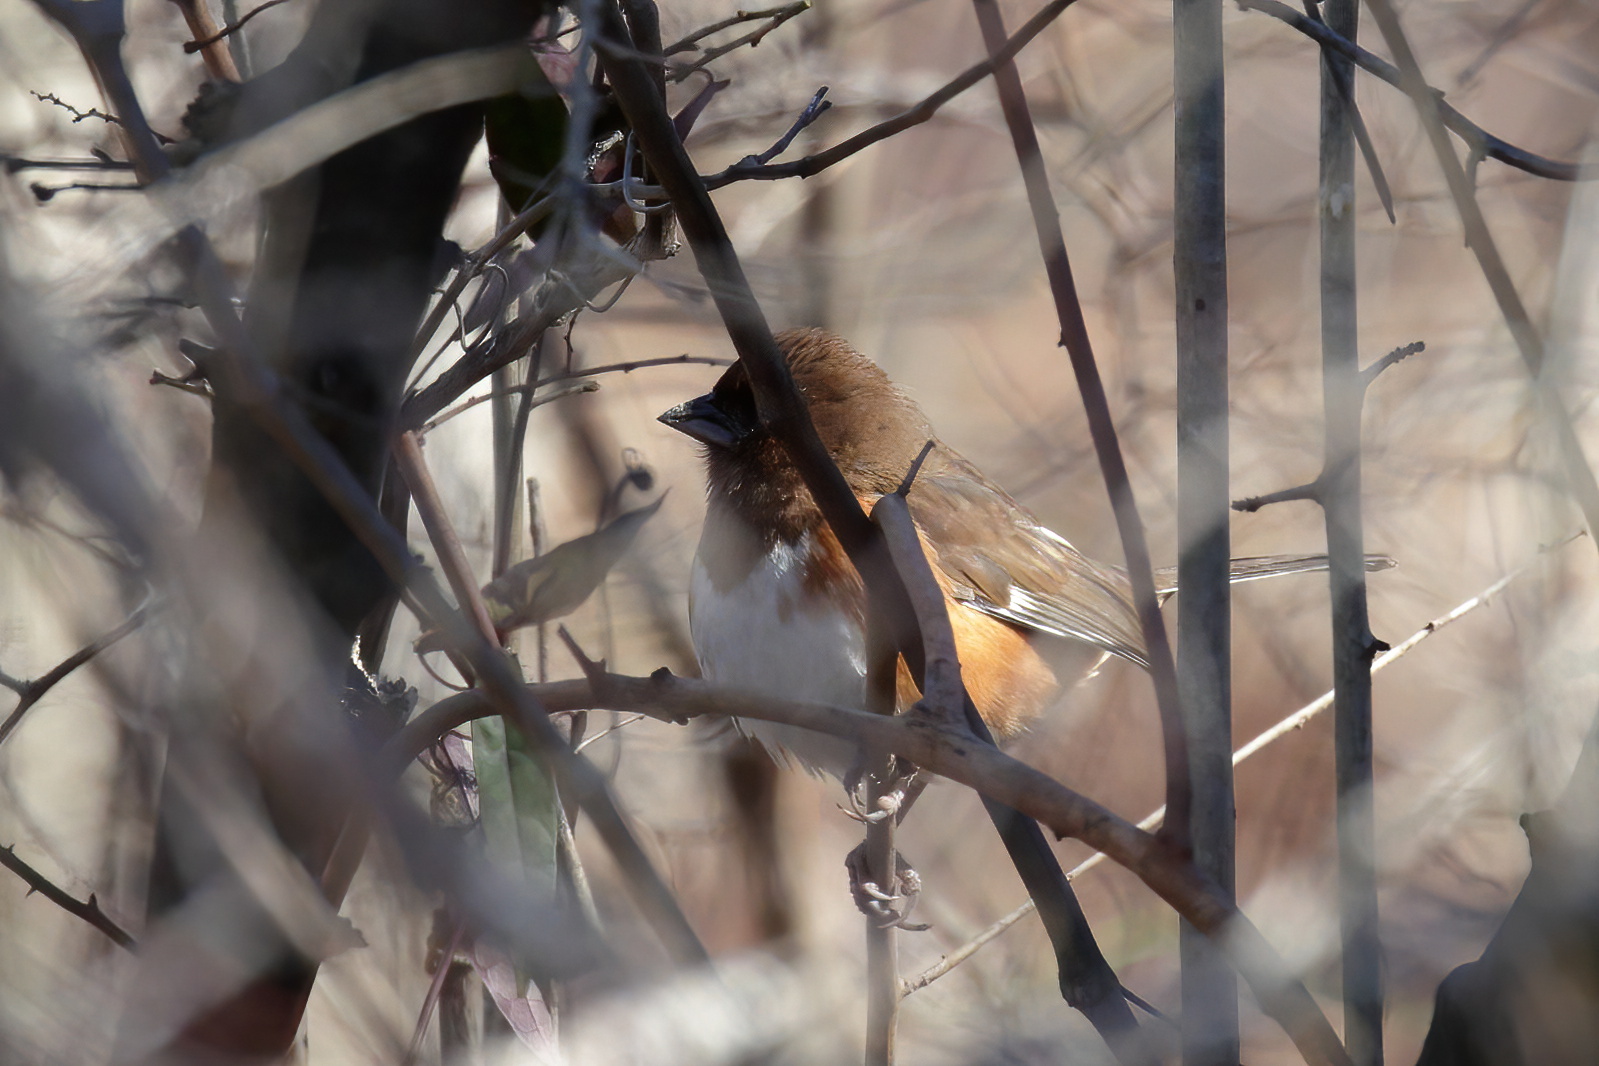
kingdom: Animalia
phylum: Chordata
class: Aves
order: Passeriformes
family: Passerellidae
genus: Pipilo
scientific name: Pipilo erythrophthalmus
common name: Eastern towhee
